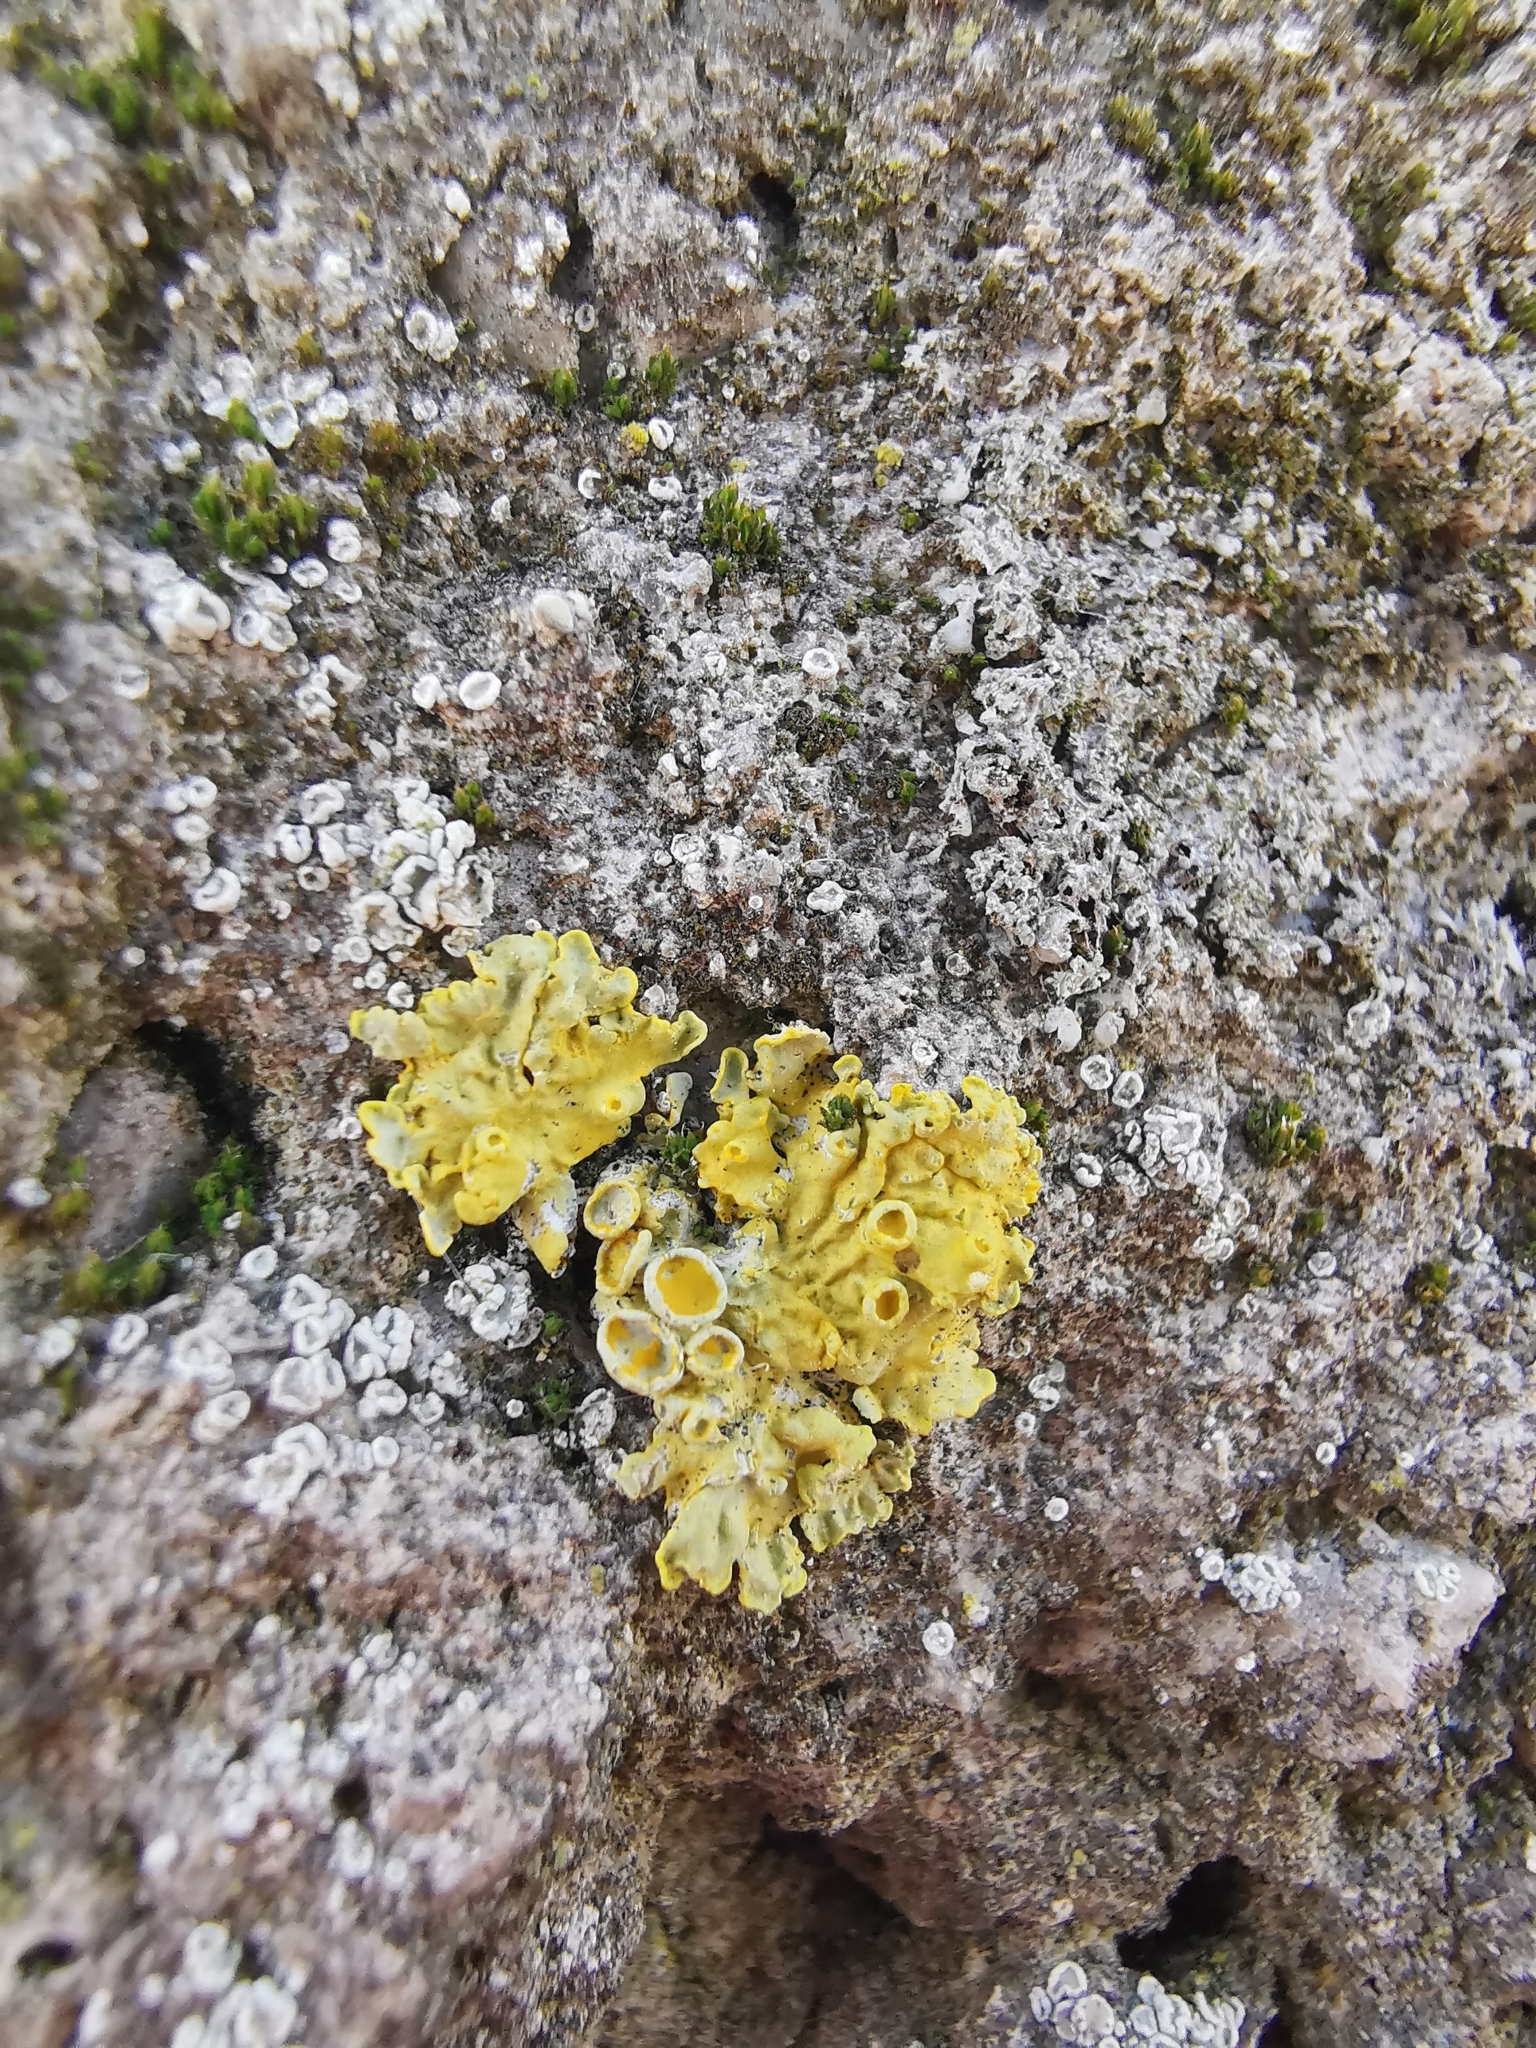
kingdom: Fungi
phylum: Ascomycota
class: Lecanoromycetes
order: Teloschistales
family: Teloschistaceae
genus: Xanthoria
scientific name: Xanthoria parietina
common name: Common orange lichen
